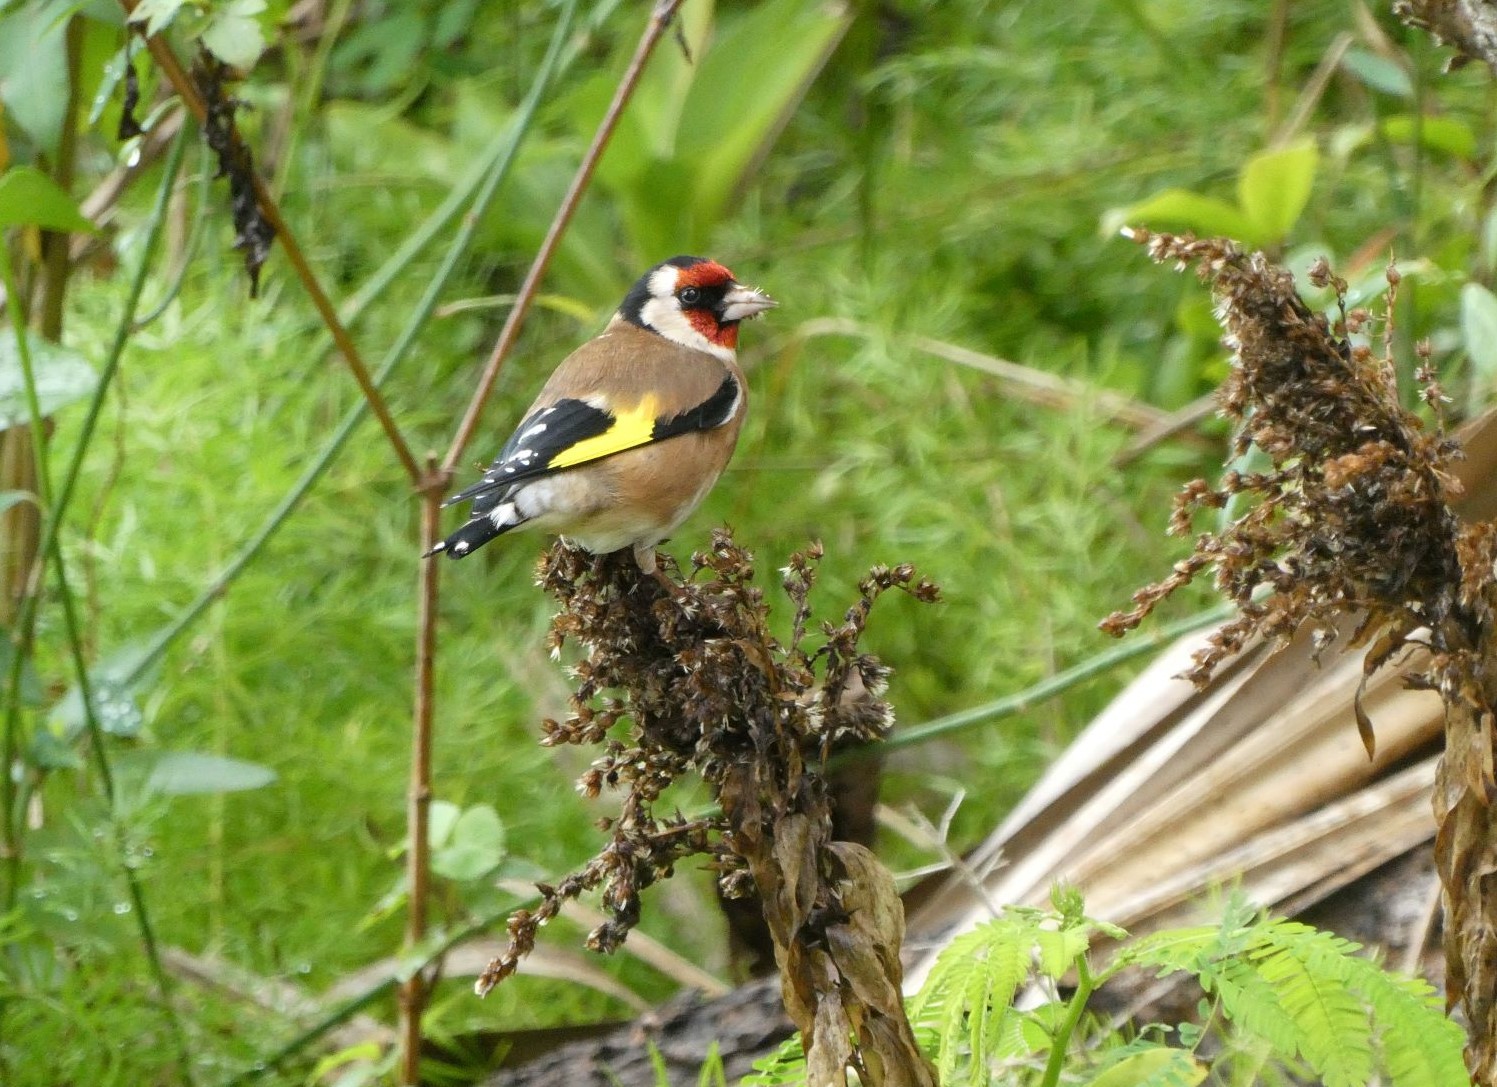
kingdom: Animalia
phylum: Chordata
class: Aves
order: Passeriformes
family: Fringillidae
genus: Carduelis
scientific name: Carduelis carduelis
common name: European goldfinch
